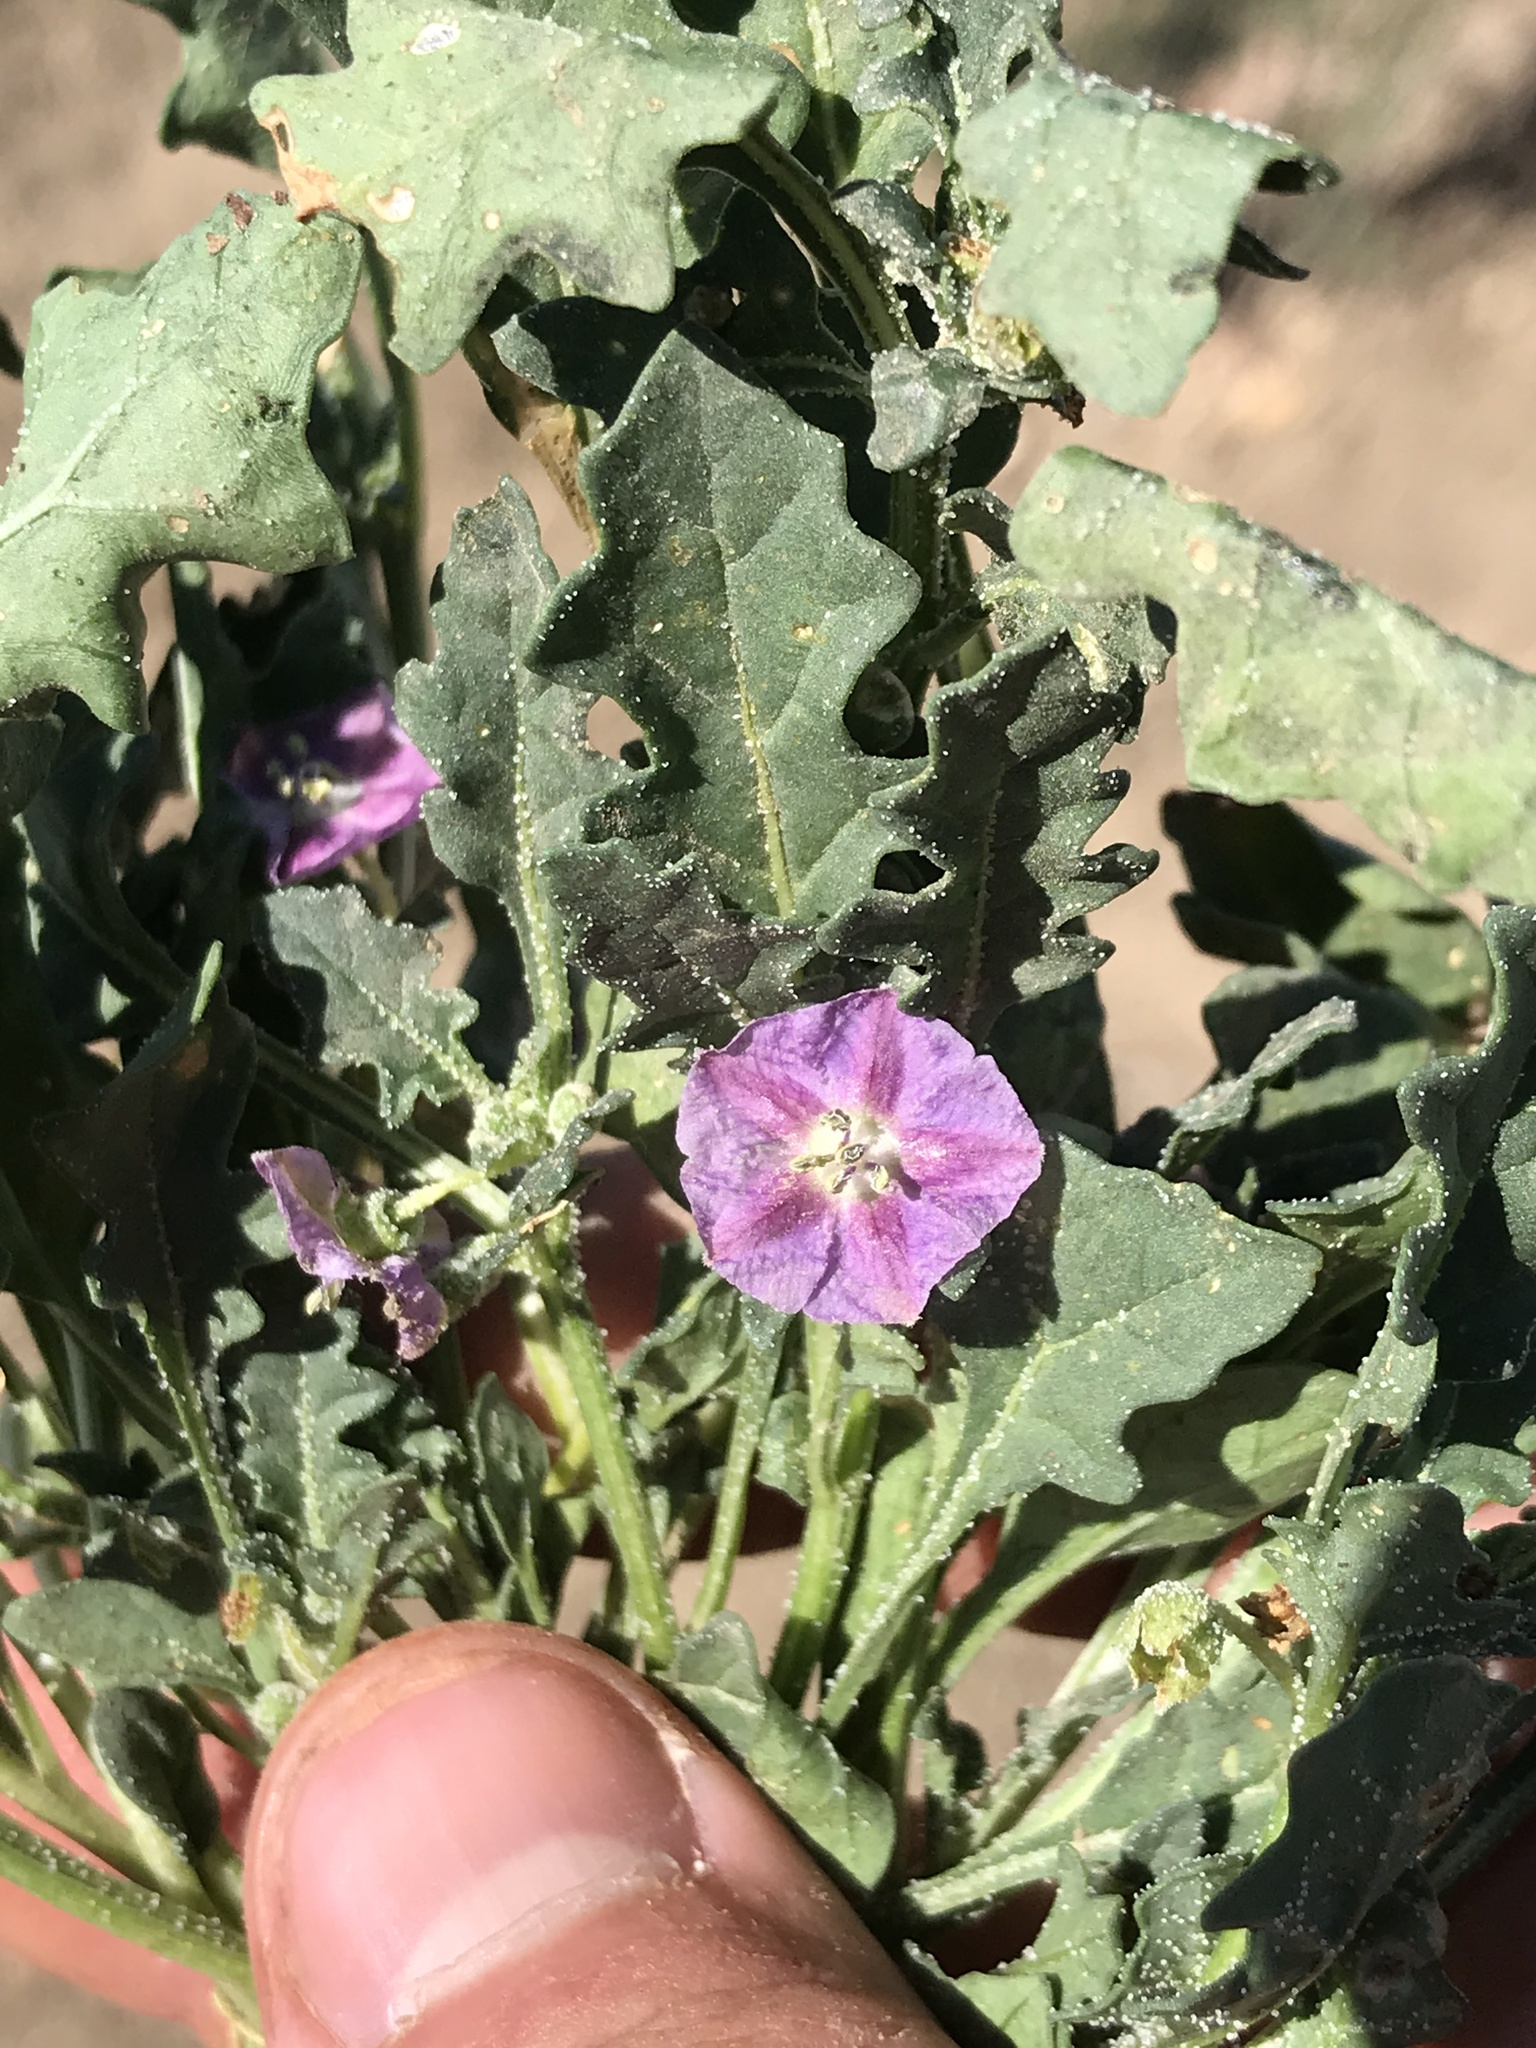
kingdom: Plantae
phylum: Tracheophyta
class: Magnoliopsida
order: Solanales
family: Solanaceae
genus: Quincula
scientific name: Quincula lobata
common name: Purple-ground-cherry
